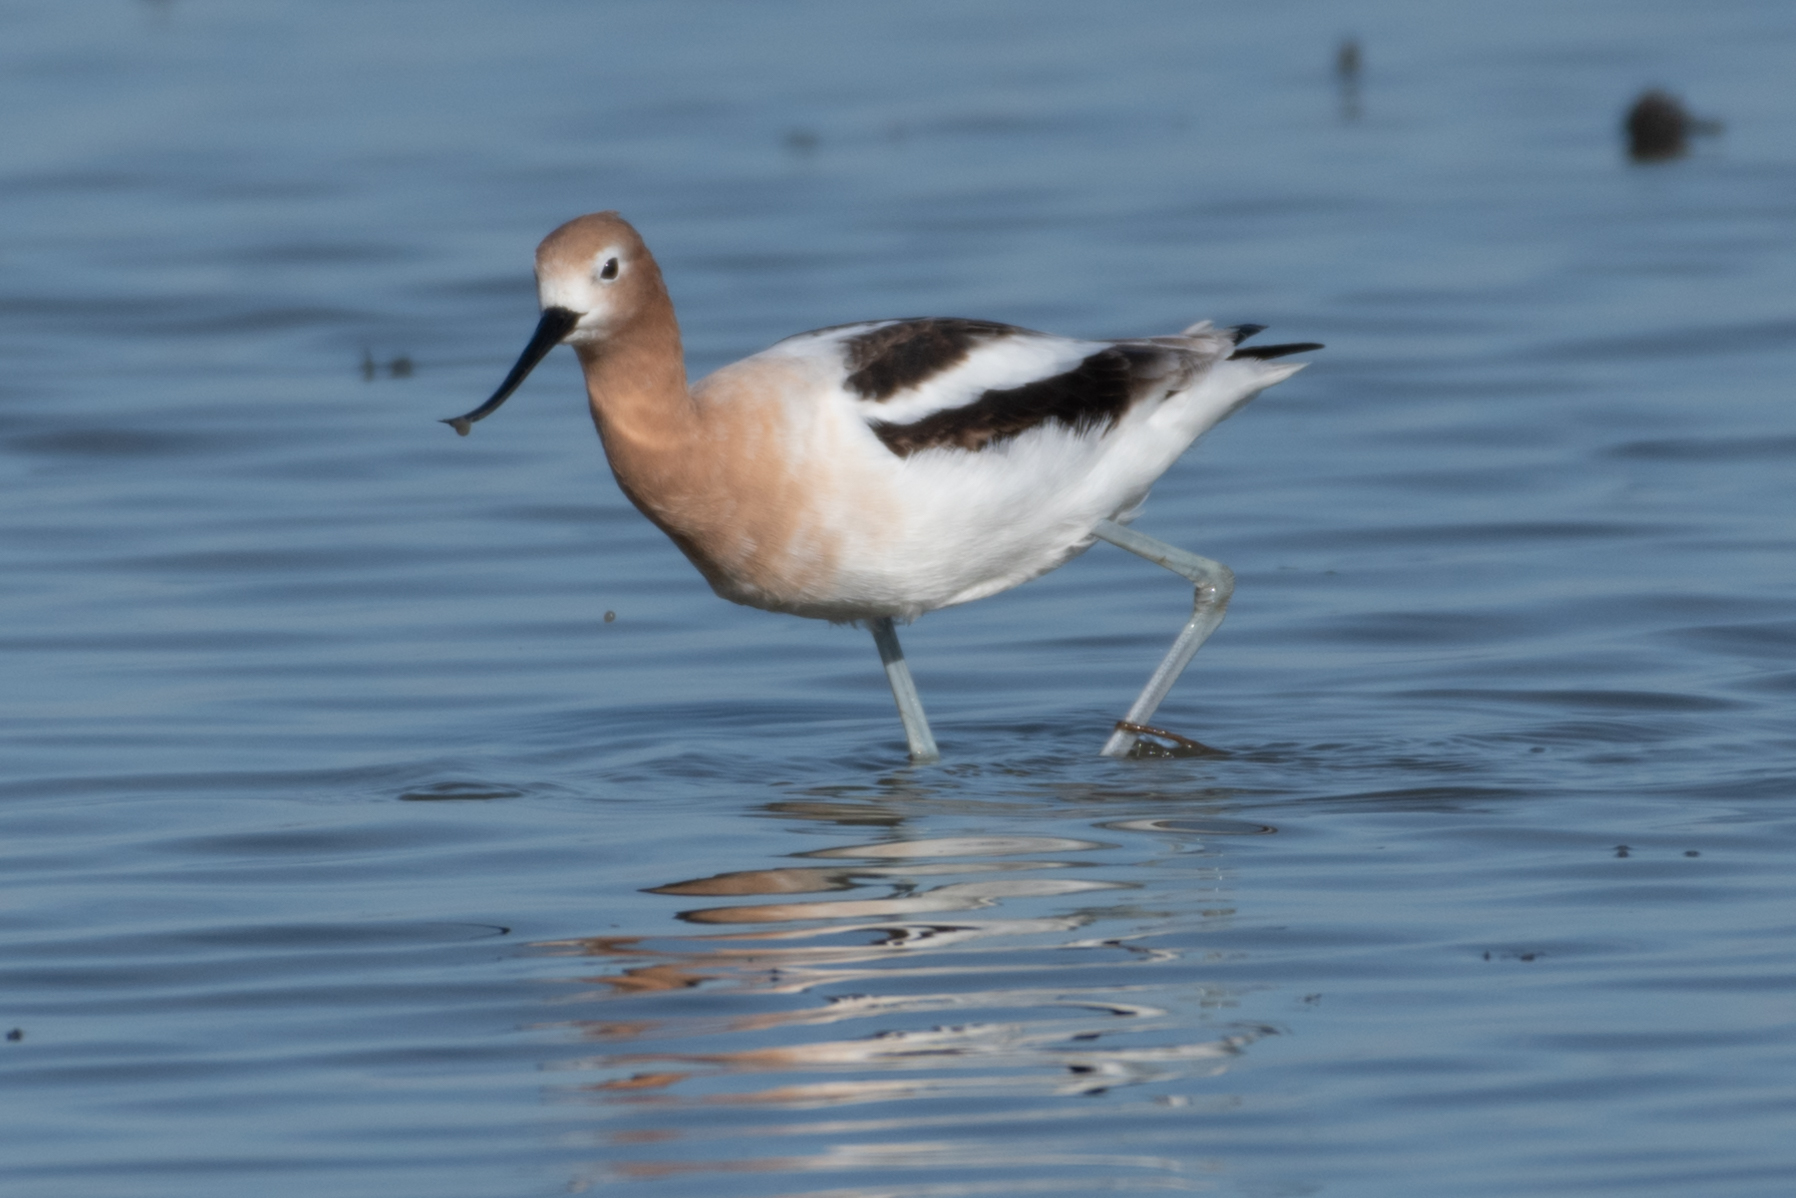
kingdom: Animalia
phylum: Chordata
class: Aves
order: Charadriiformes
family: Recurvirostridae
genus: Recurvirostra
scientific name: Recurvirostra americana
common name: American avocet
